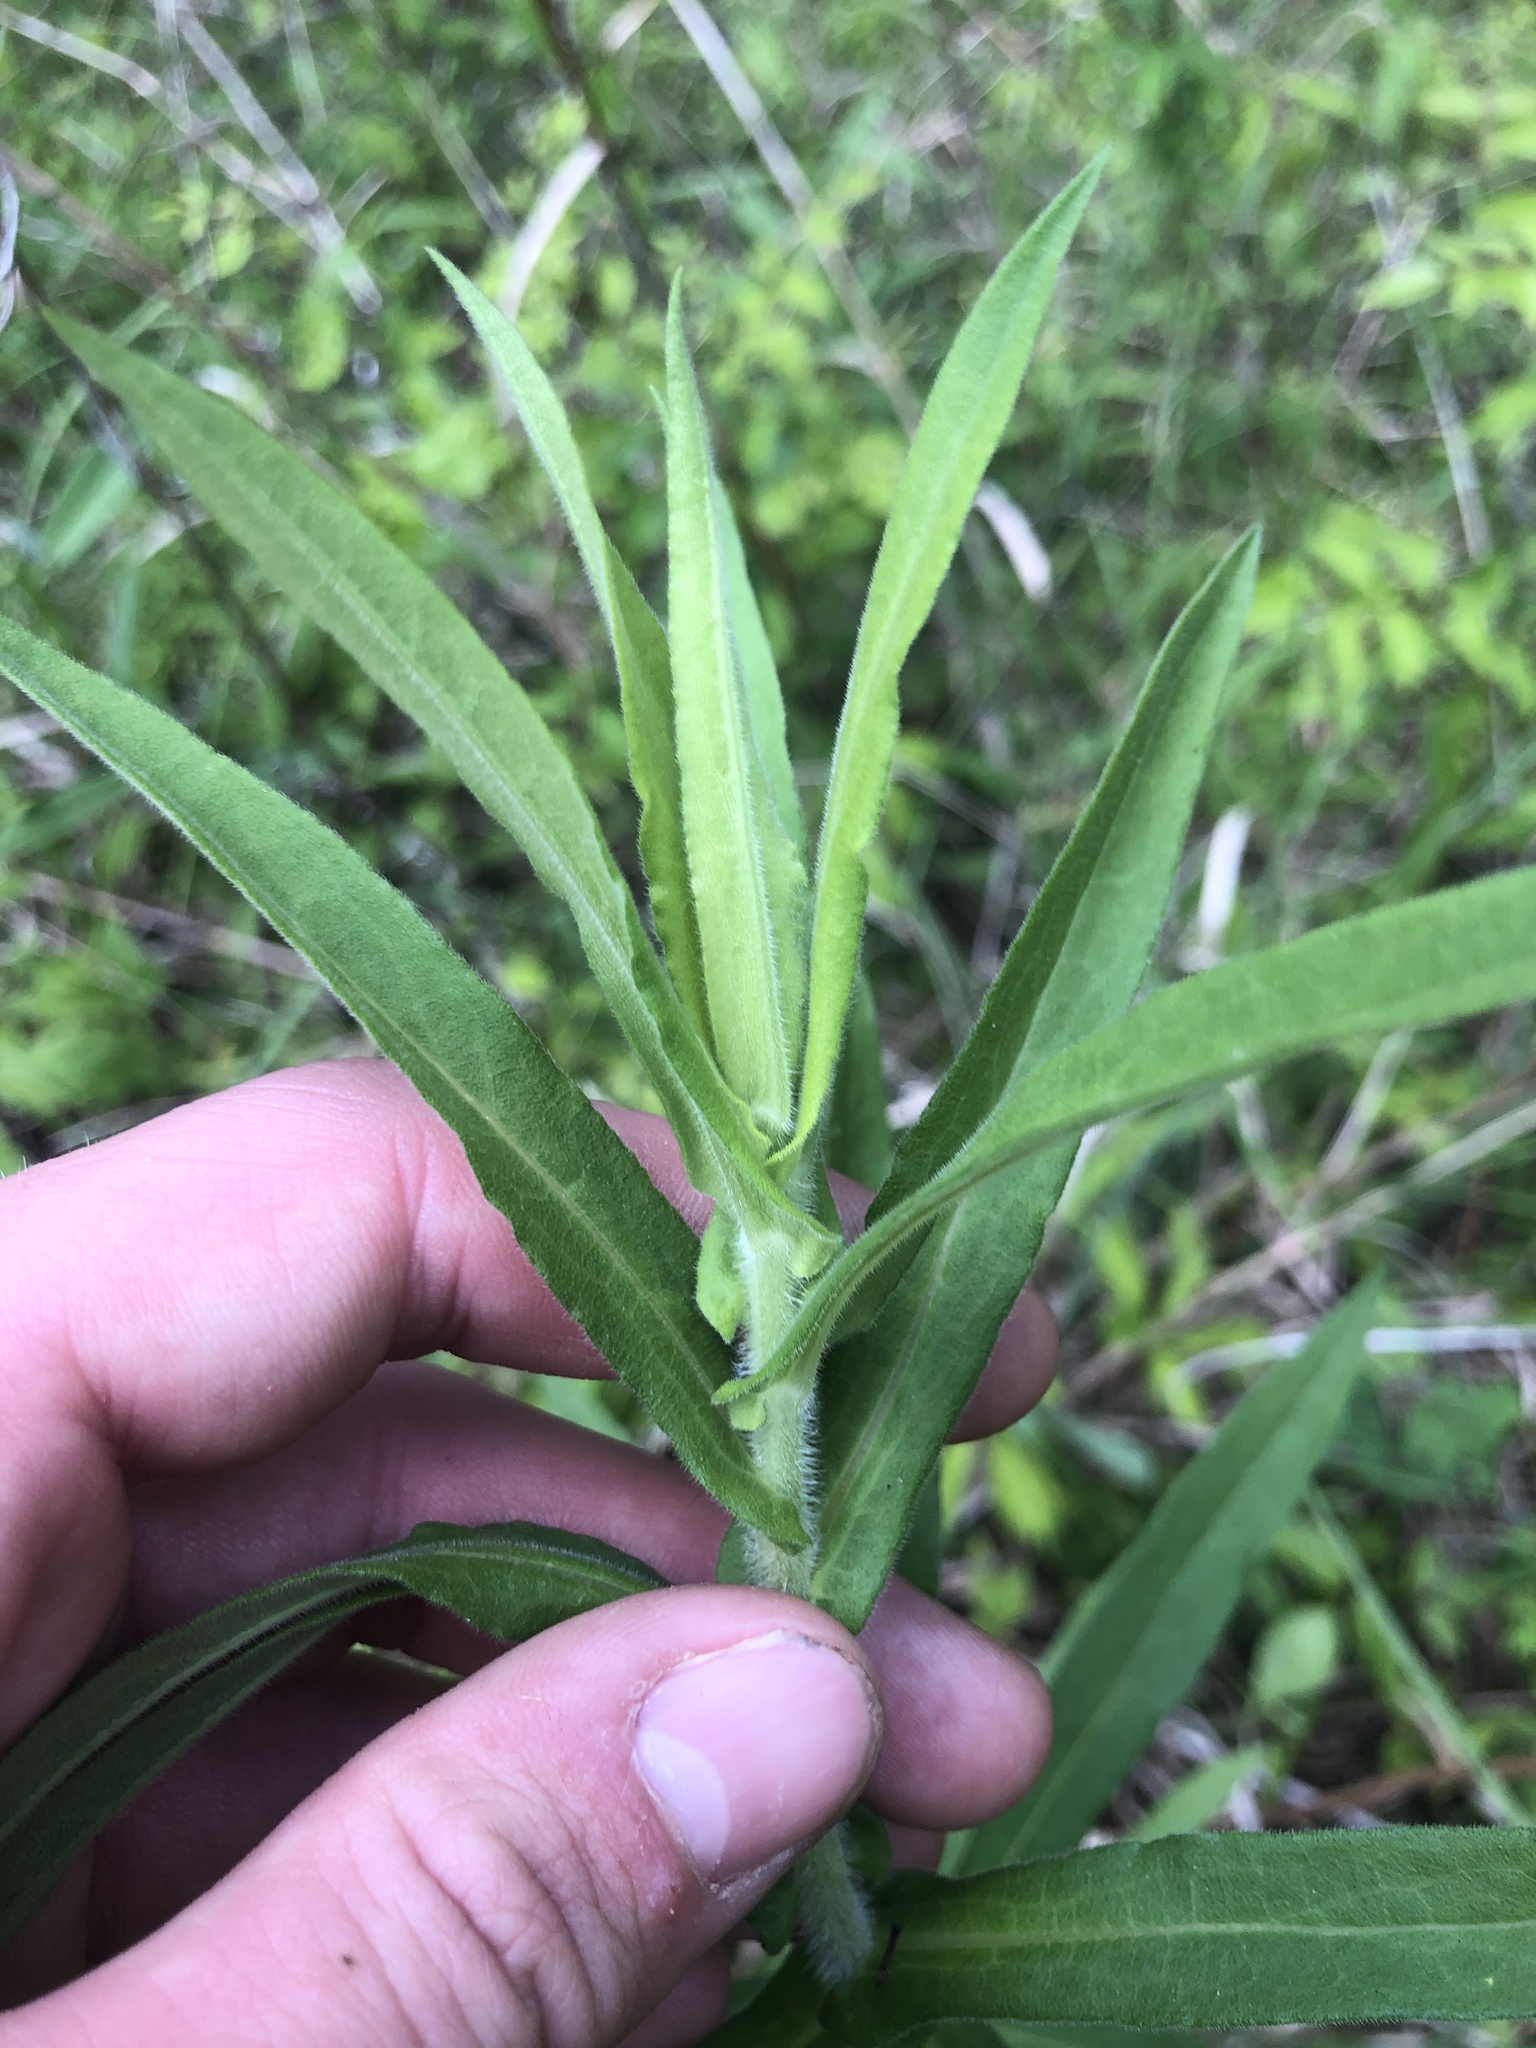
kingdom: Plantae
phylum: Tracheophyta
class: Magnoliopsida
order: Asterales
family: Asteraceae
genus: Symphyotrichum
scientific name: Symphyotrichum novae-angliae
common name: Michaelmas daisy
